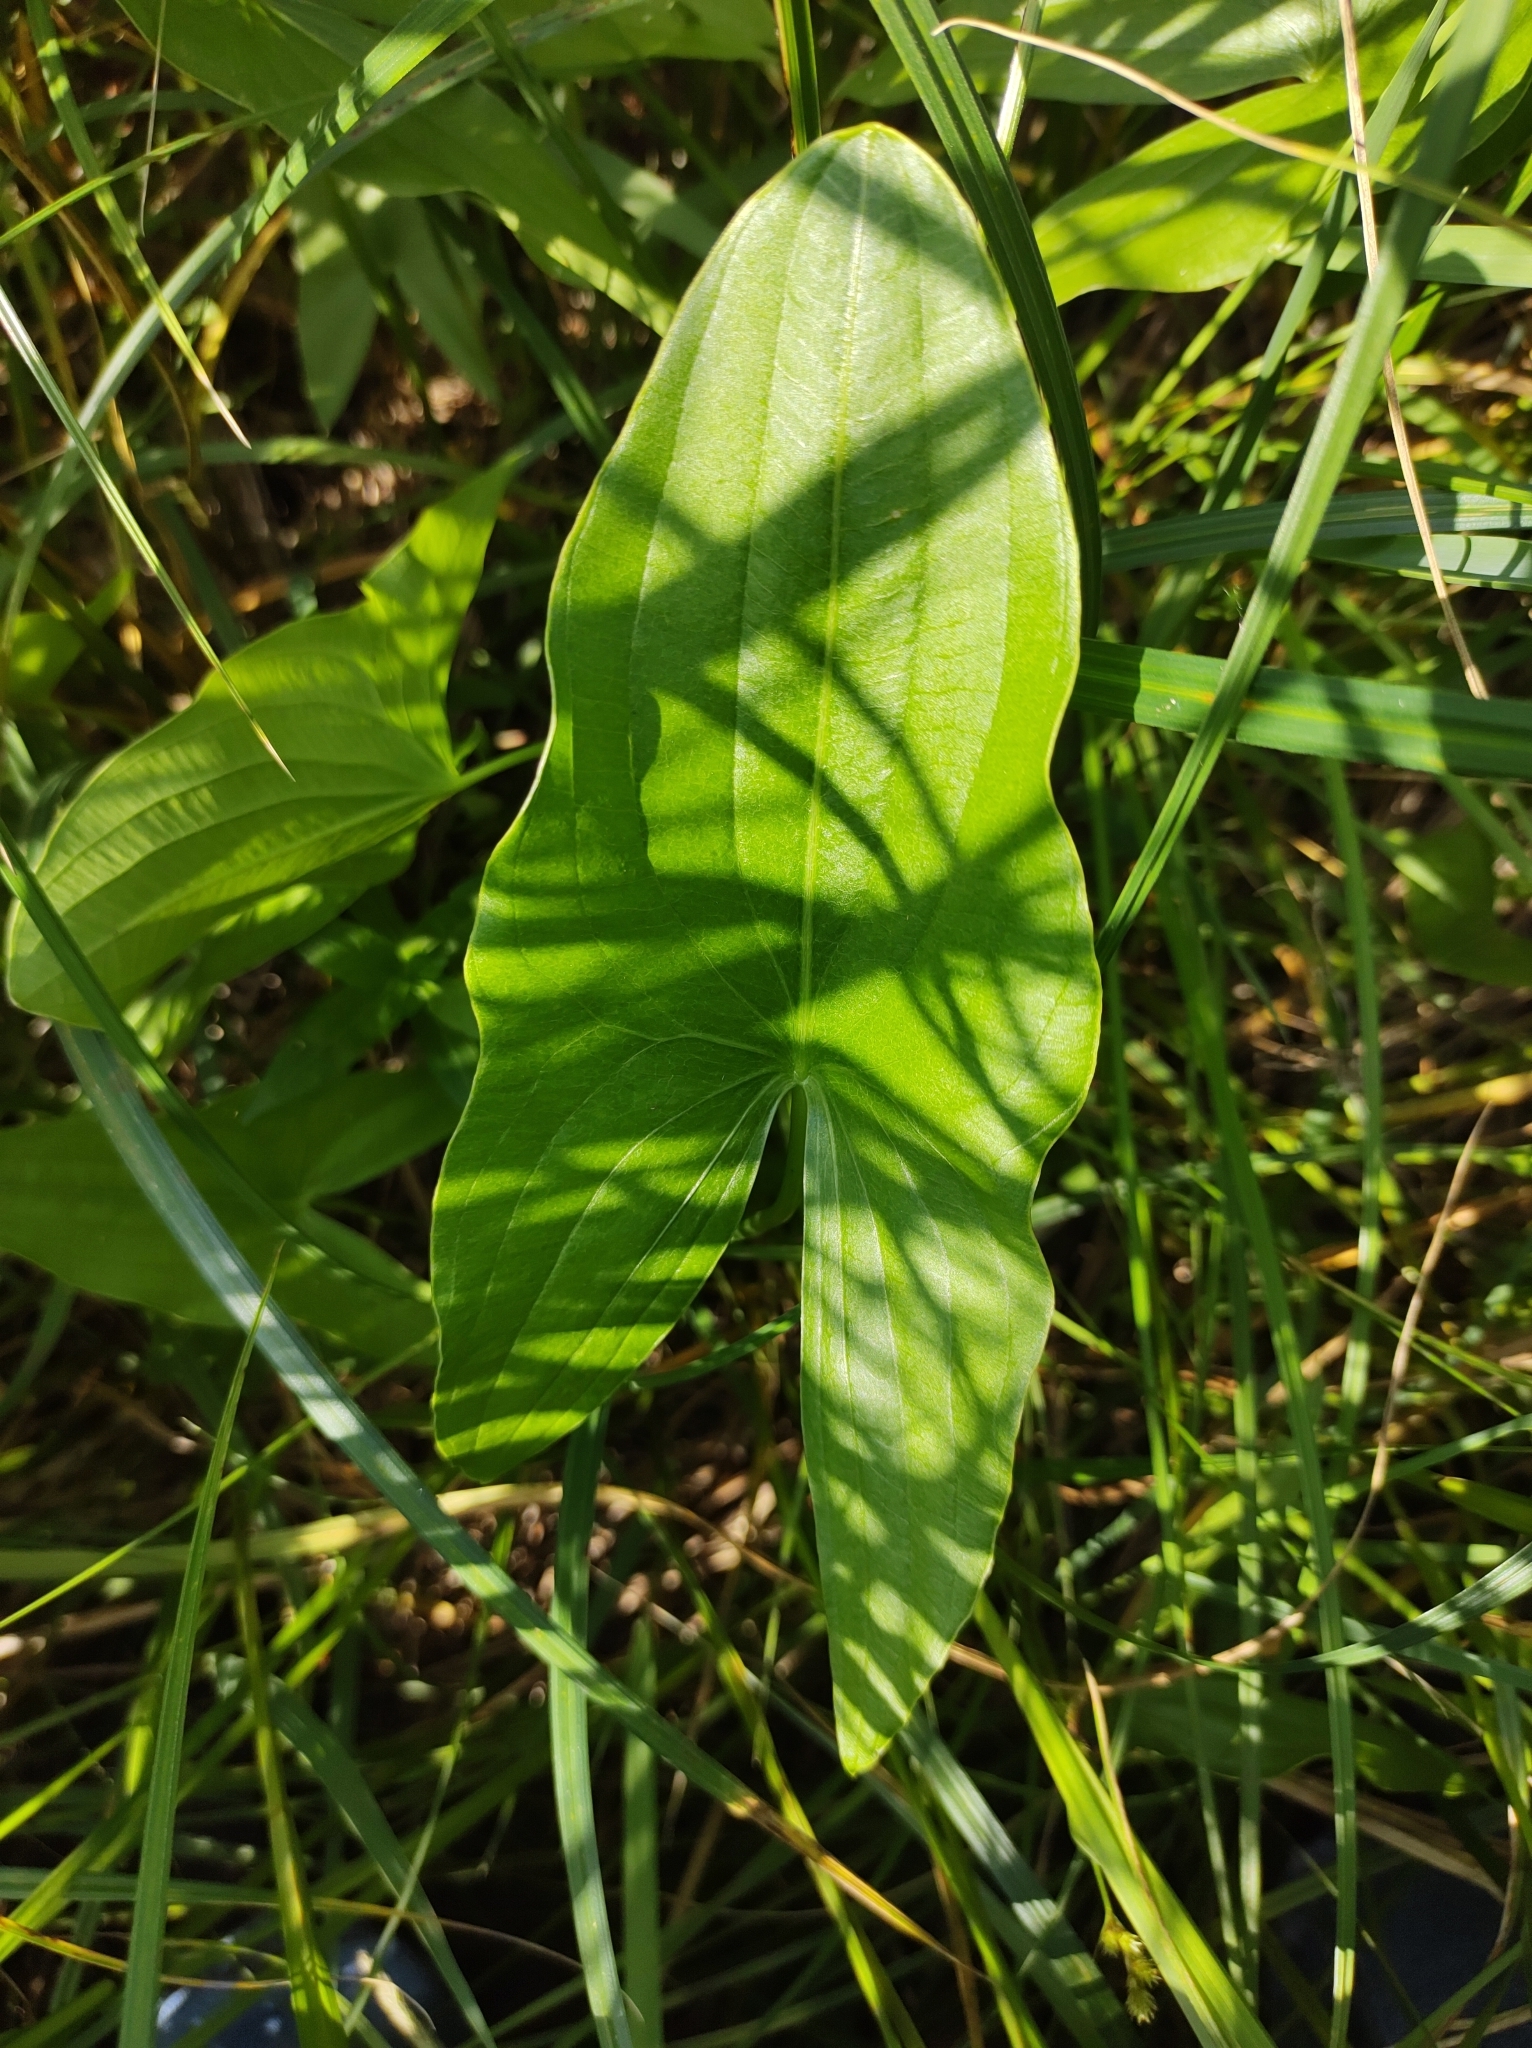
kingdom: Plantae
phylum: Tracheophyta
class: Liliopsida
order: Alismatales
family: Alismataceae
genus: Sagittaria
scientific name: Sagittaria
